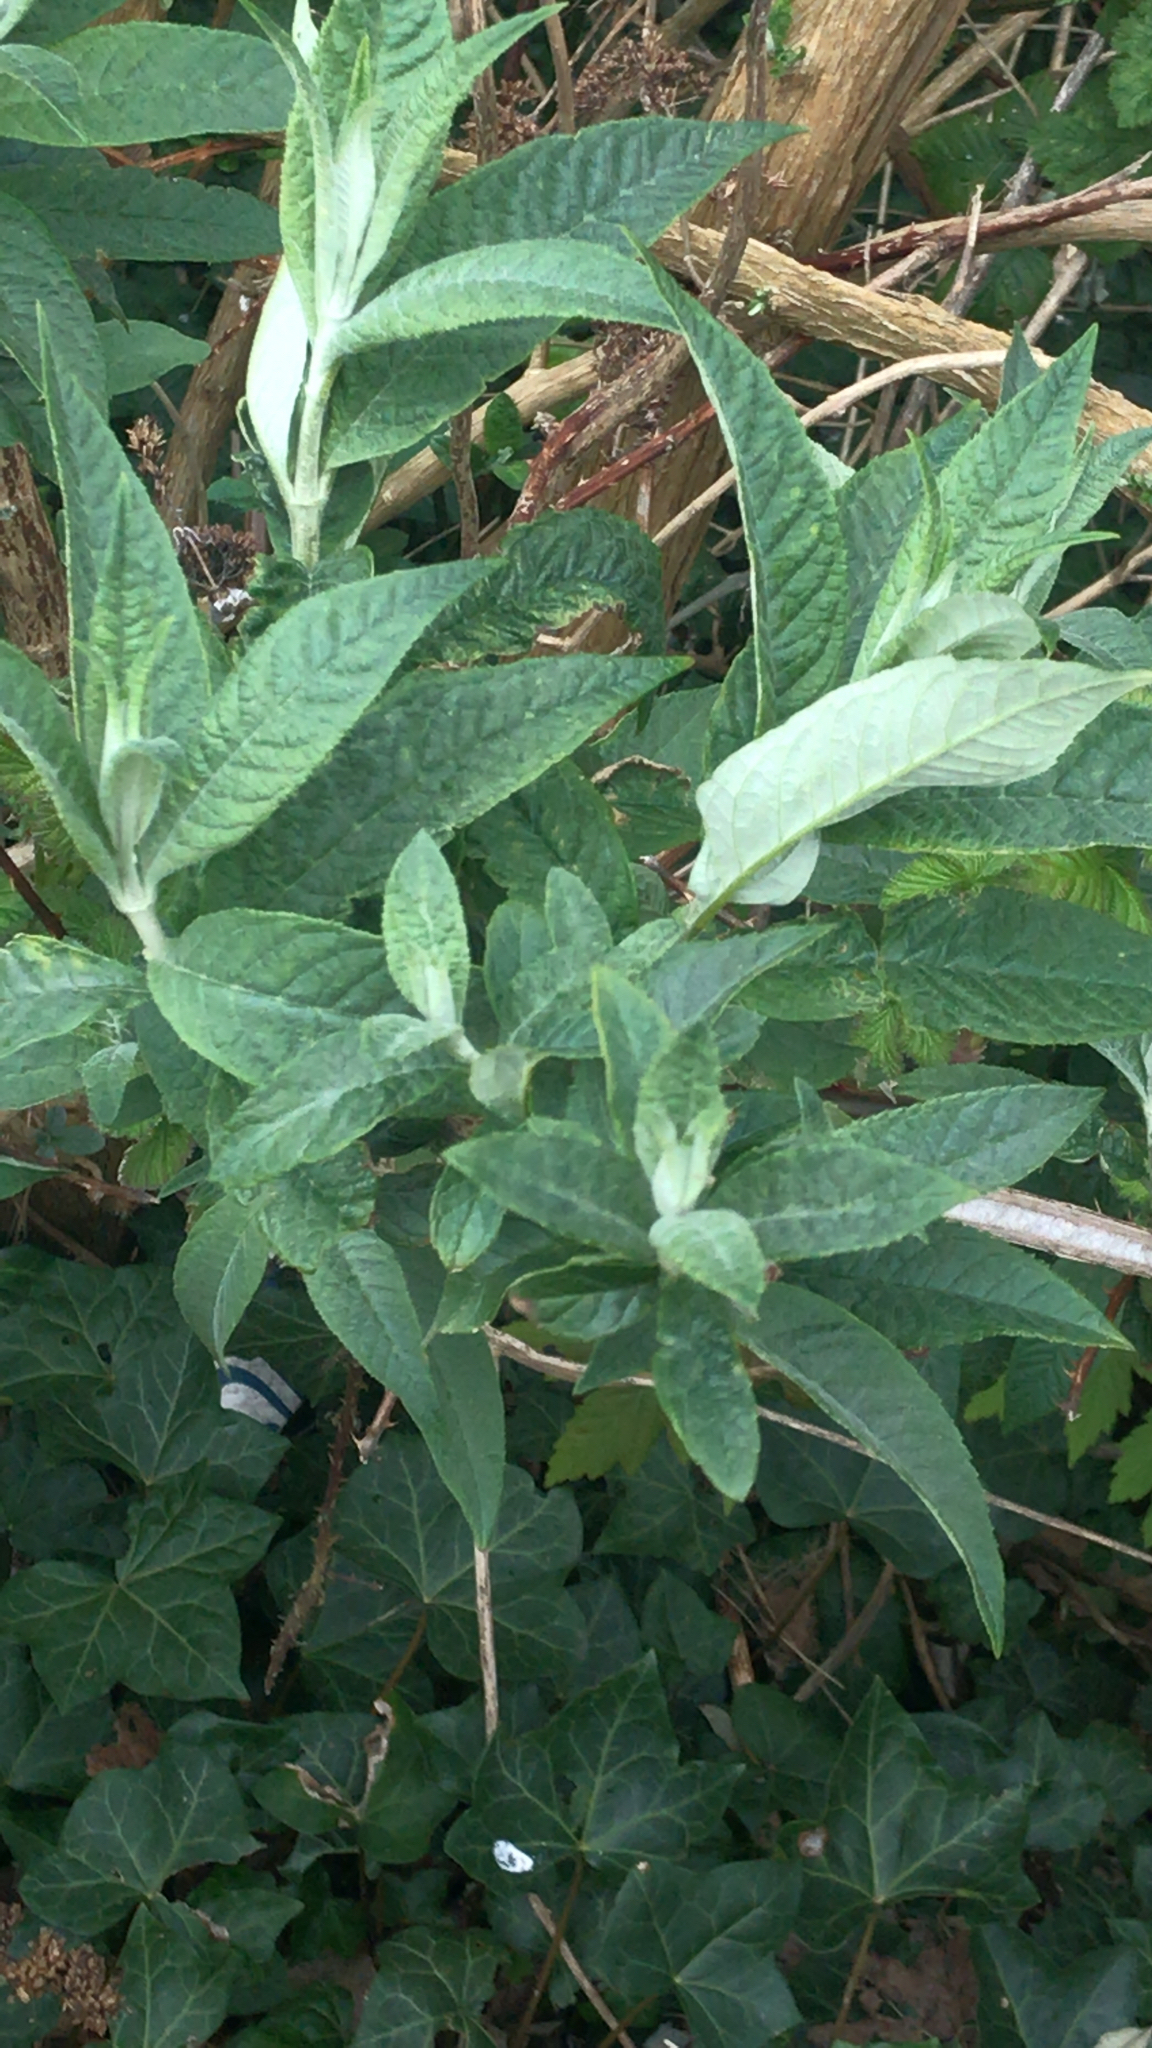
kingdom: Plantae
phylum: Tracheophyta
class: Magnoliopsida
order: Lamiales
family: Scrophulariaceae
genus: Buddleja
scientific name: Buddleja davidii
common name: Butterfly-bush
